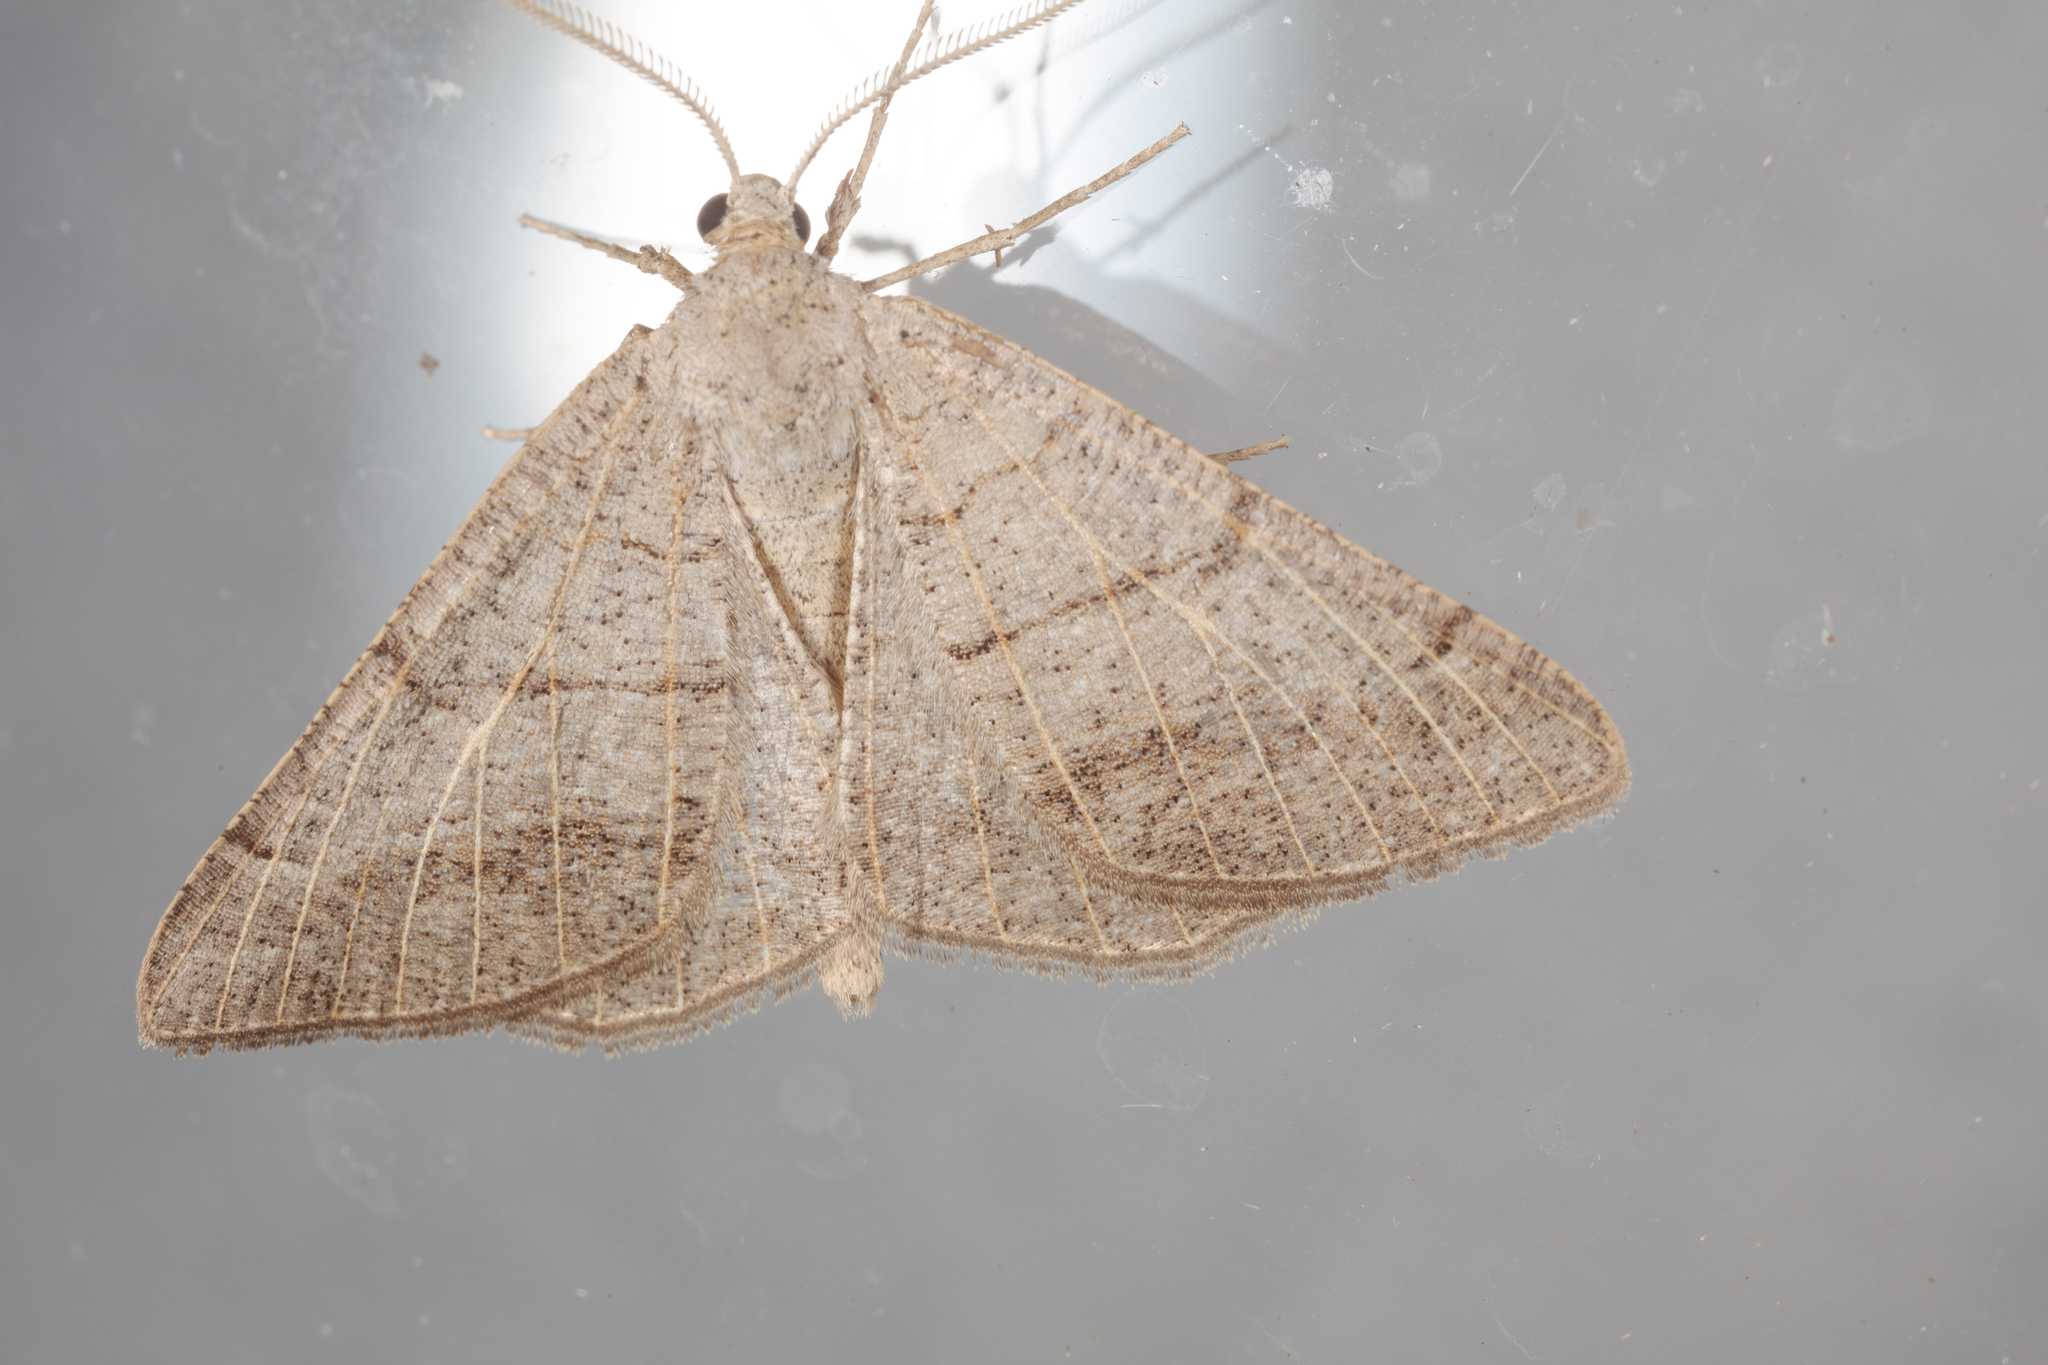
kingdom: Animalia
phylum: Arthropoda
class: Insecta
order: Lepidoptera
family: Geometridae
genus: Isturgia
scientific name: Isturgia dislocaria
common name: Pale-viened enconista
